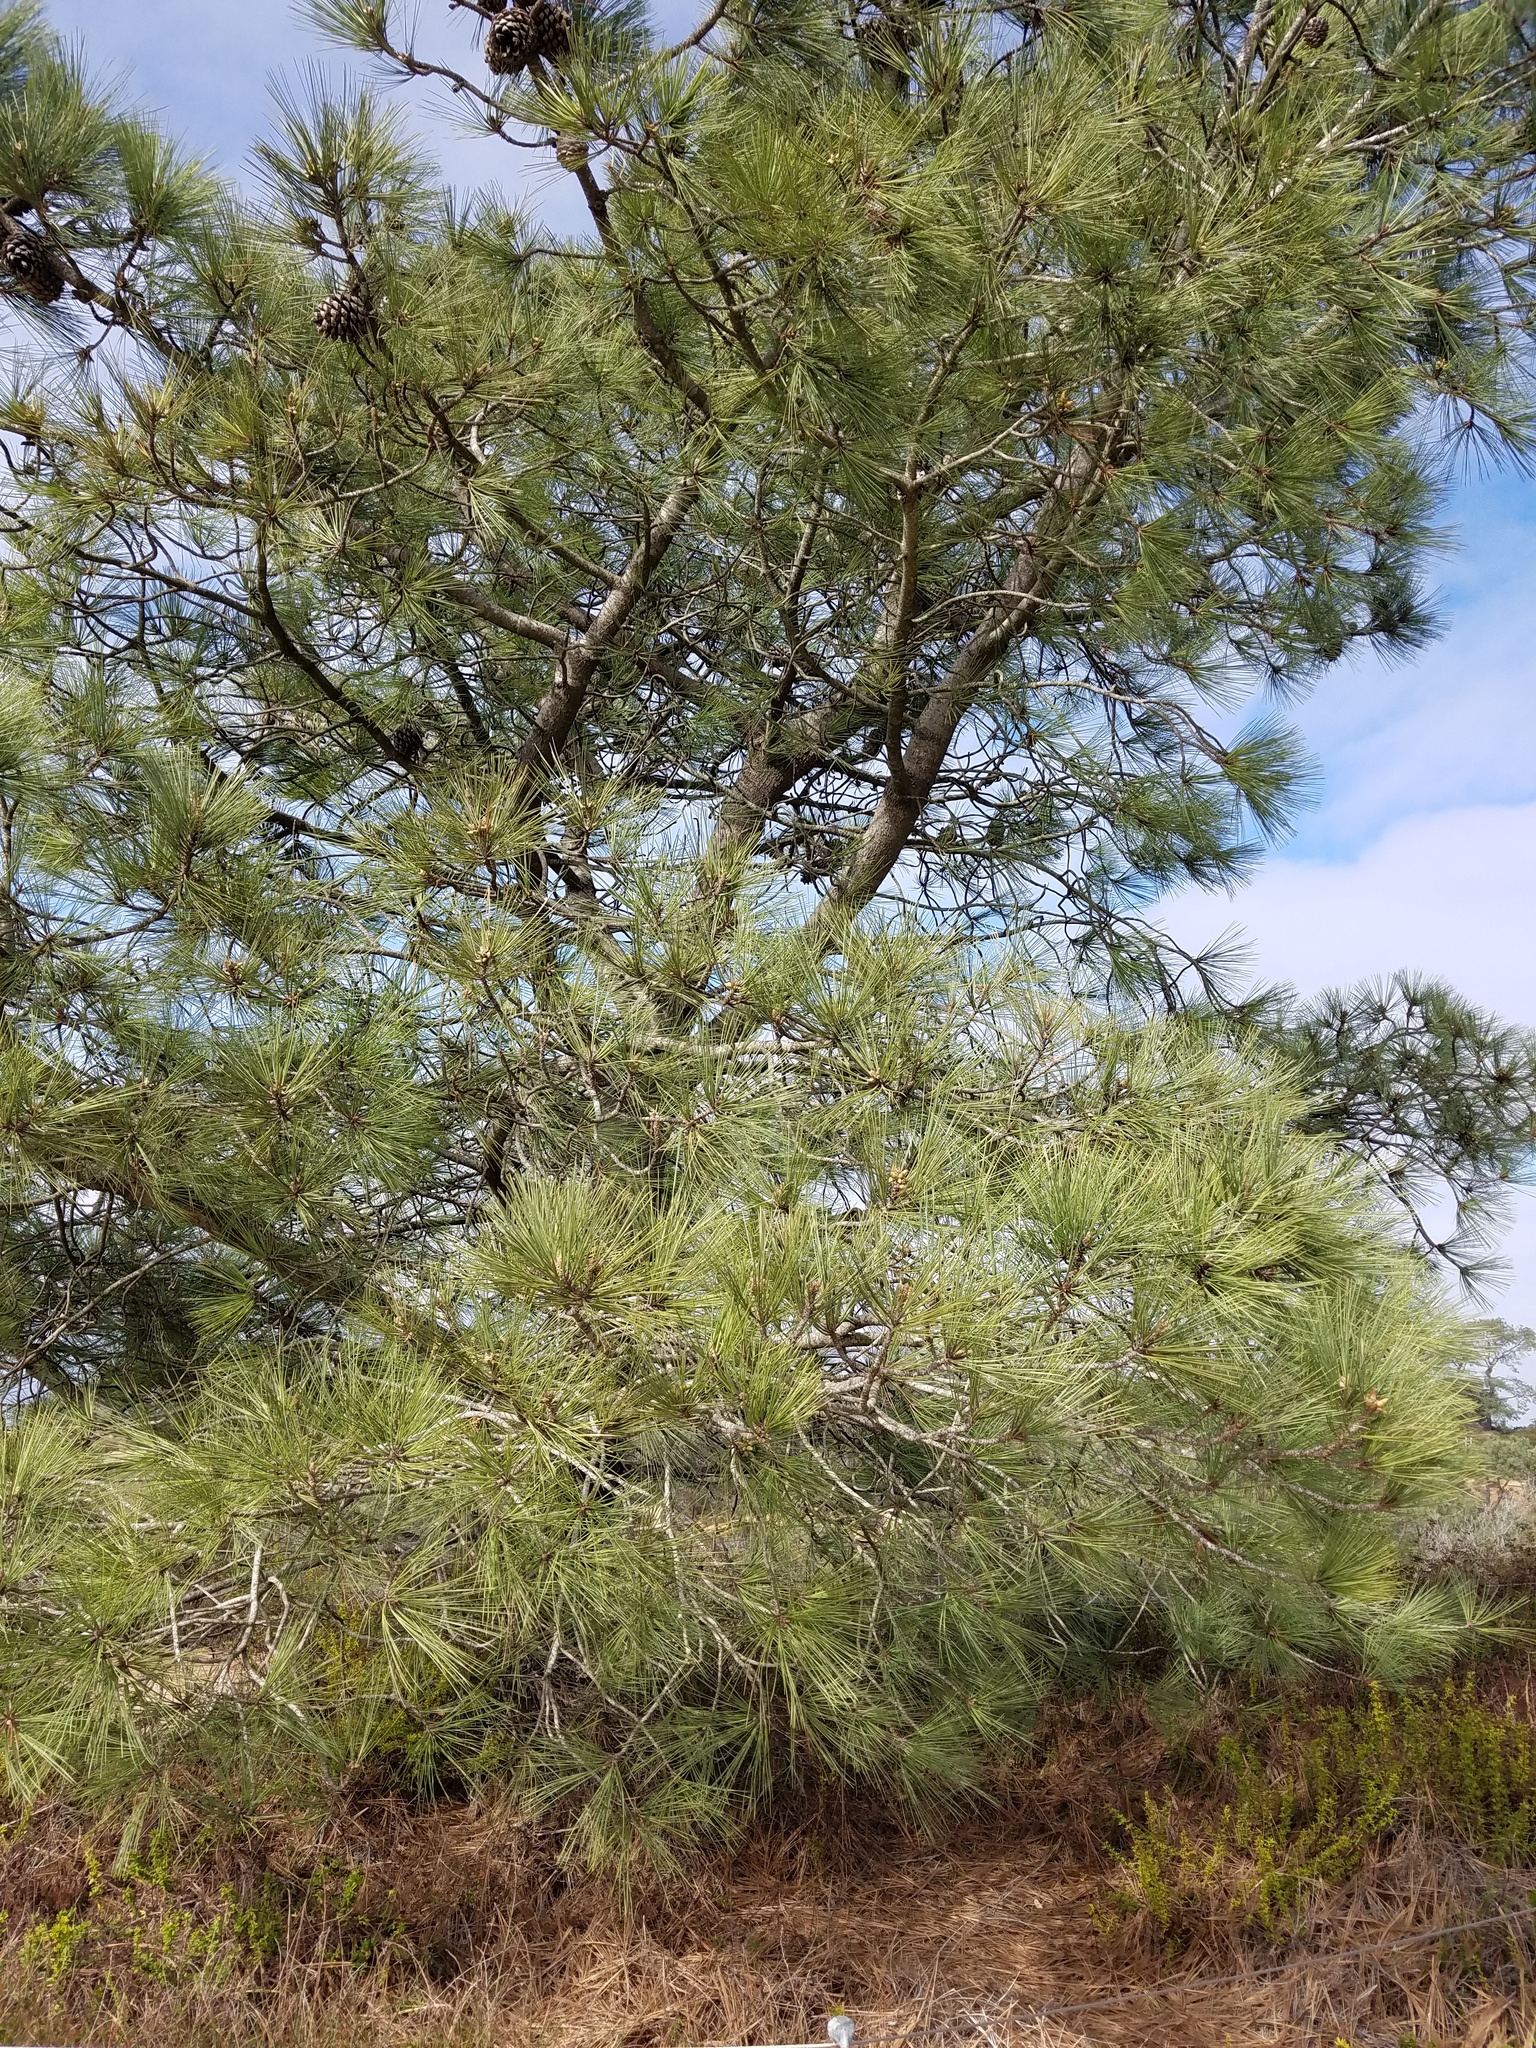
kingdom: Plantae
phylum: Tracheophyta
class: Pinopsida
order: Pinales
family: Pinaceae
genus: Pinus
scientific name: Pinus torreyana
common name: Torrey pine
